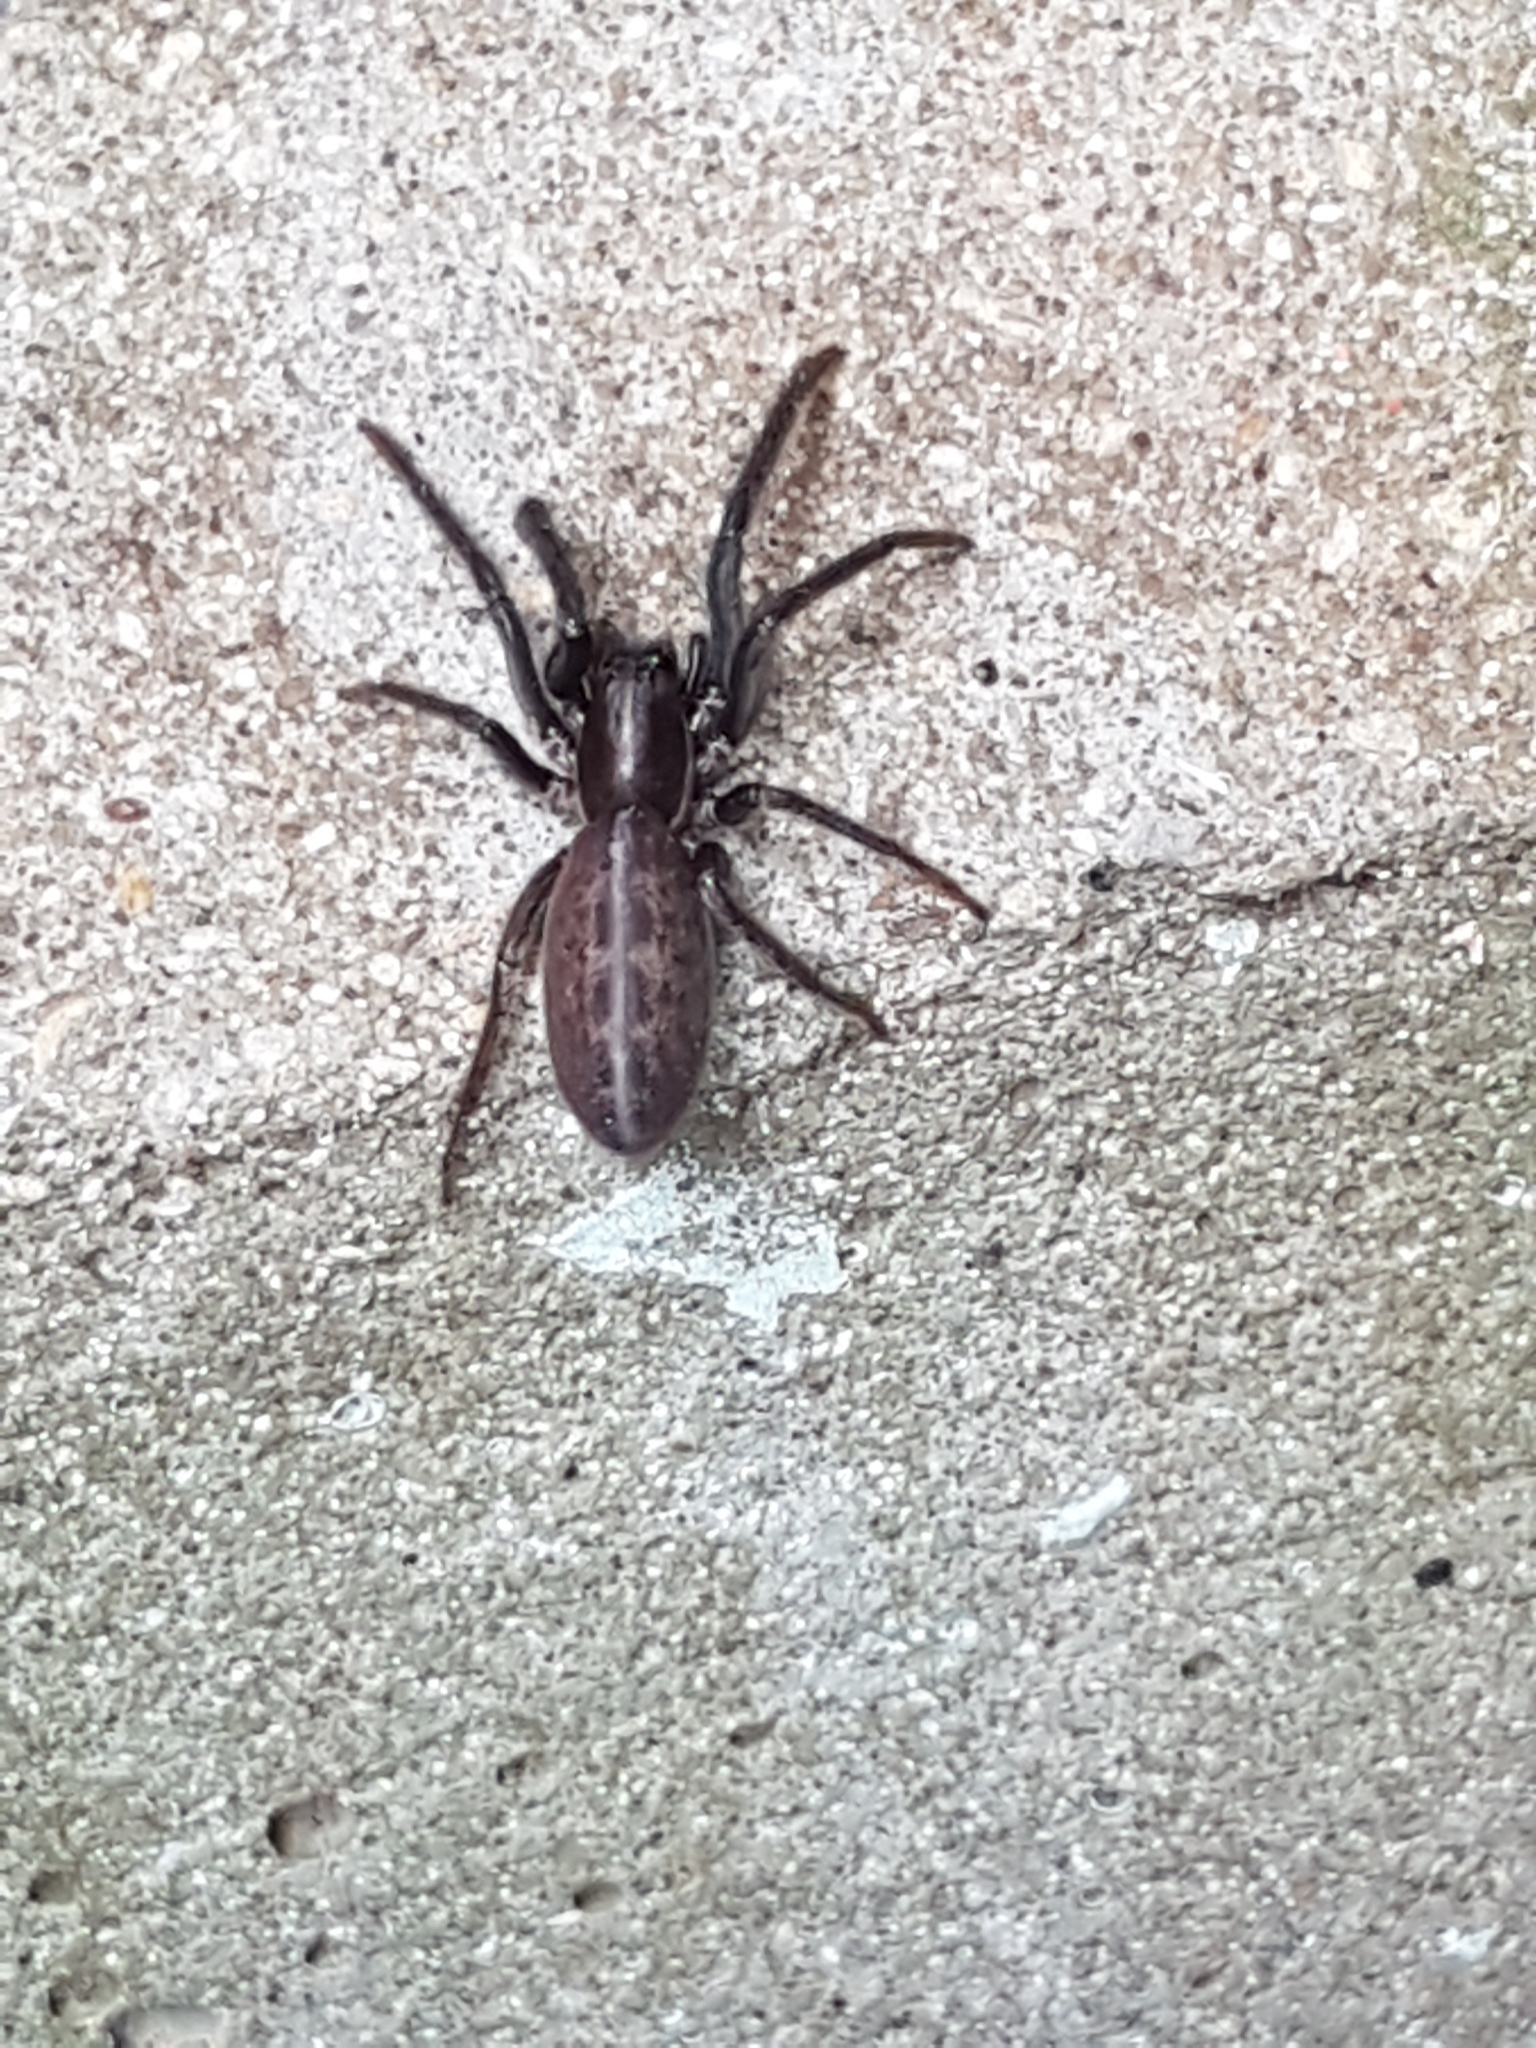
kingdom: Animalia
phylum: Arthropoda
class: Arachnida
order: Araneae
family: Segestriidae
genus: Segestria
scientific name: Segestria florentina
